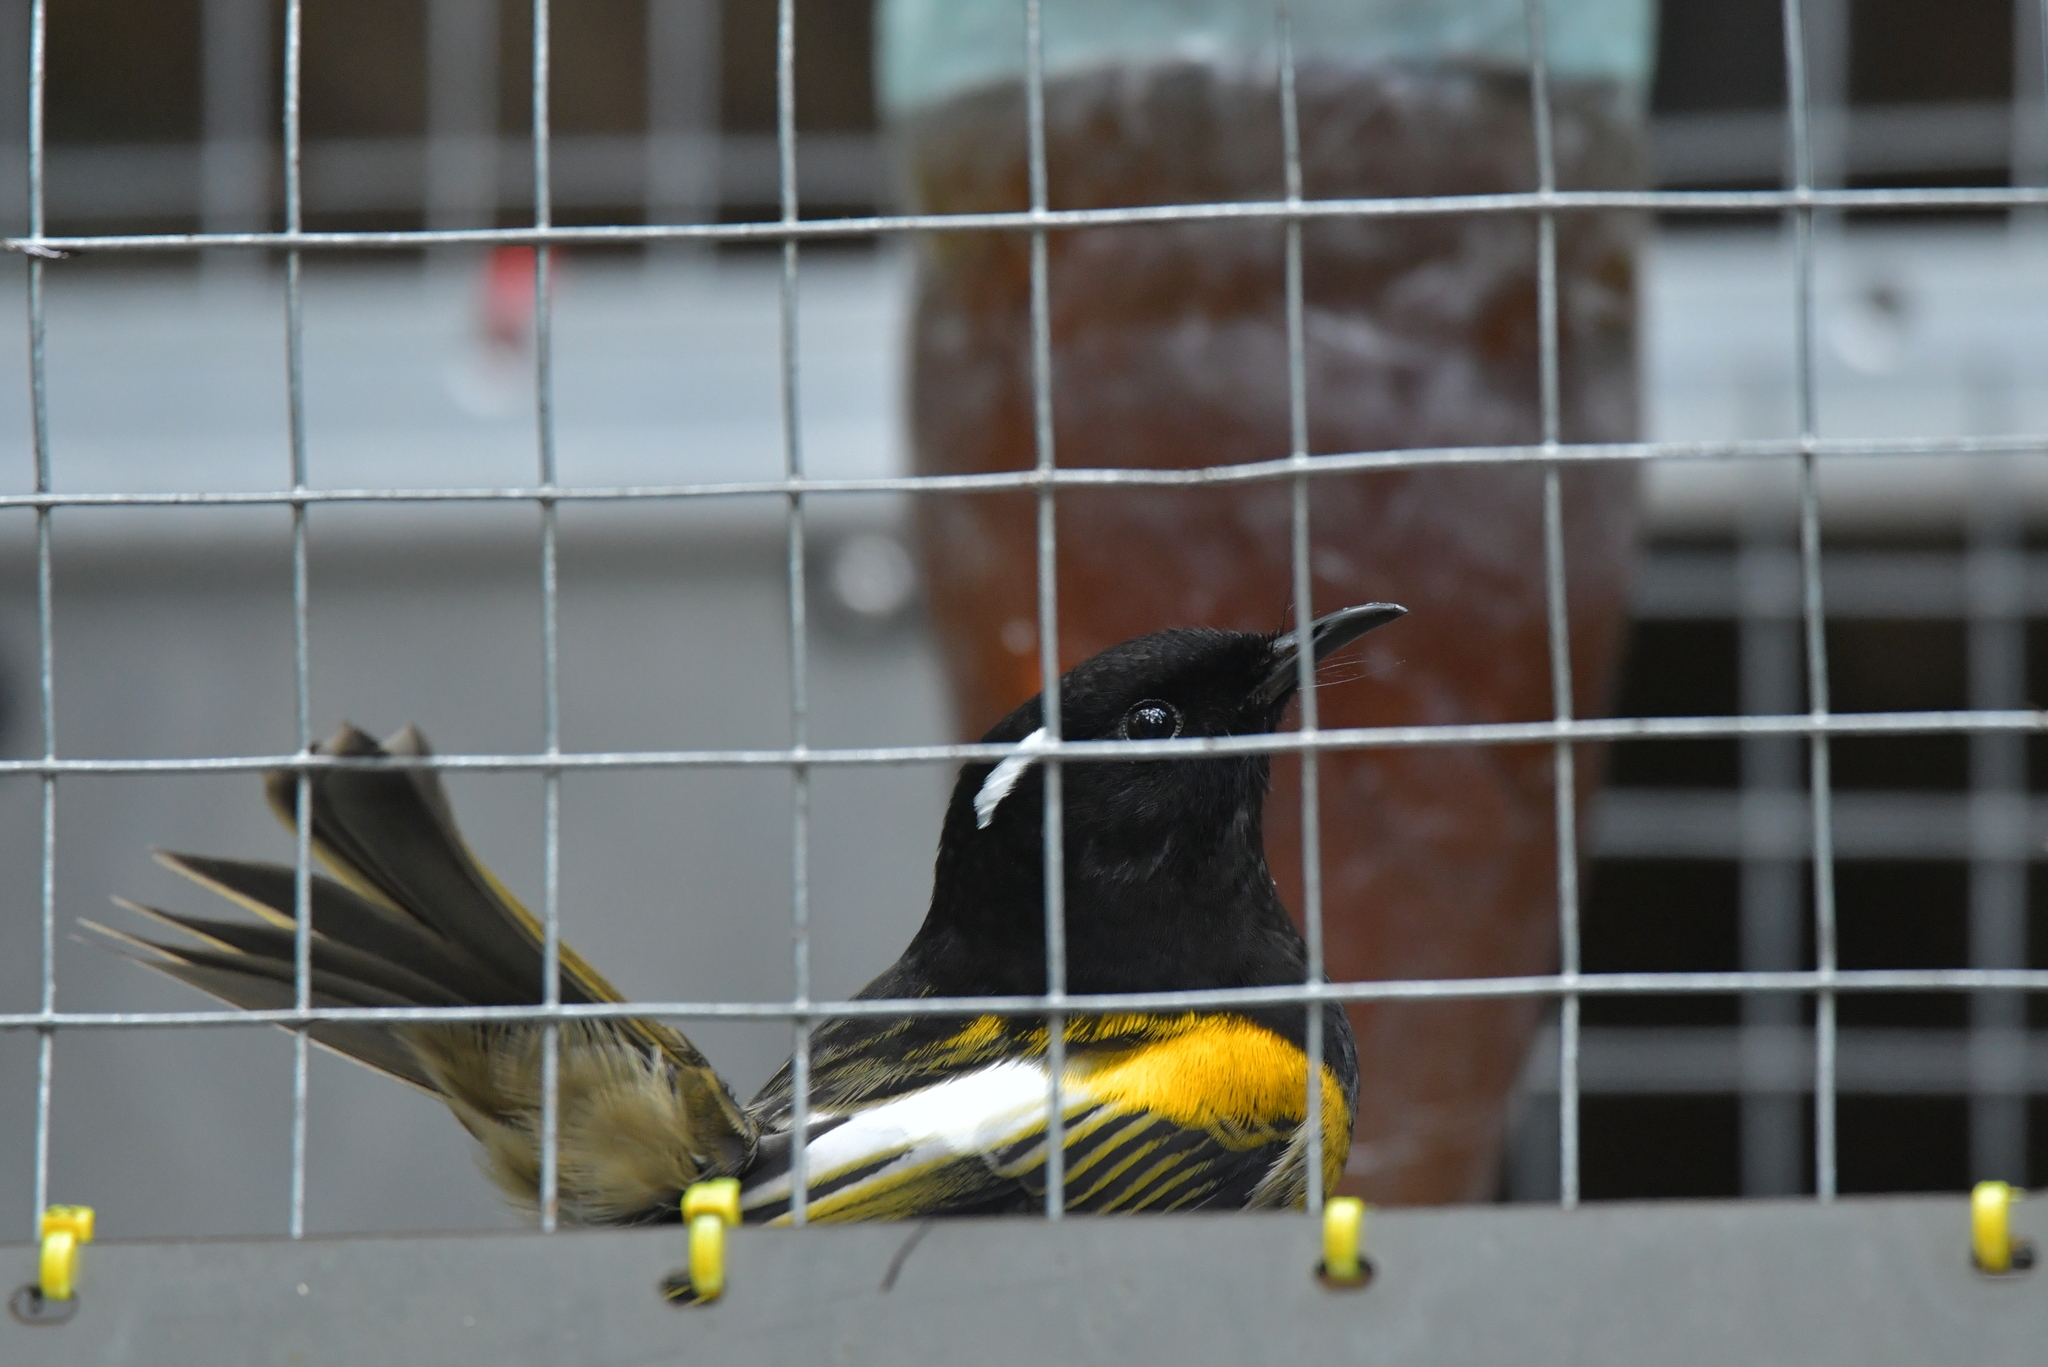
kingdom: Animalia
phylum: Chordata
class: Aves
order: Passeriformes
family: Notiomystidae
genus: Notiomystis
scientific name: Notiomystis cincta
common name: Stitchbird
